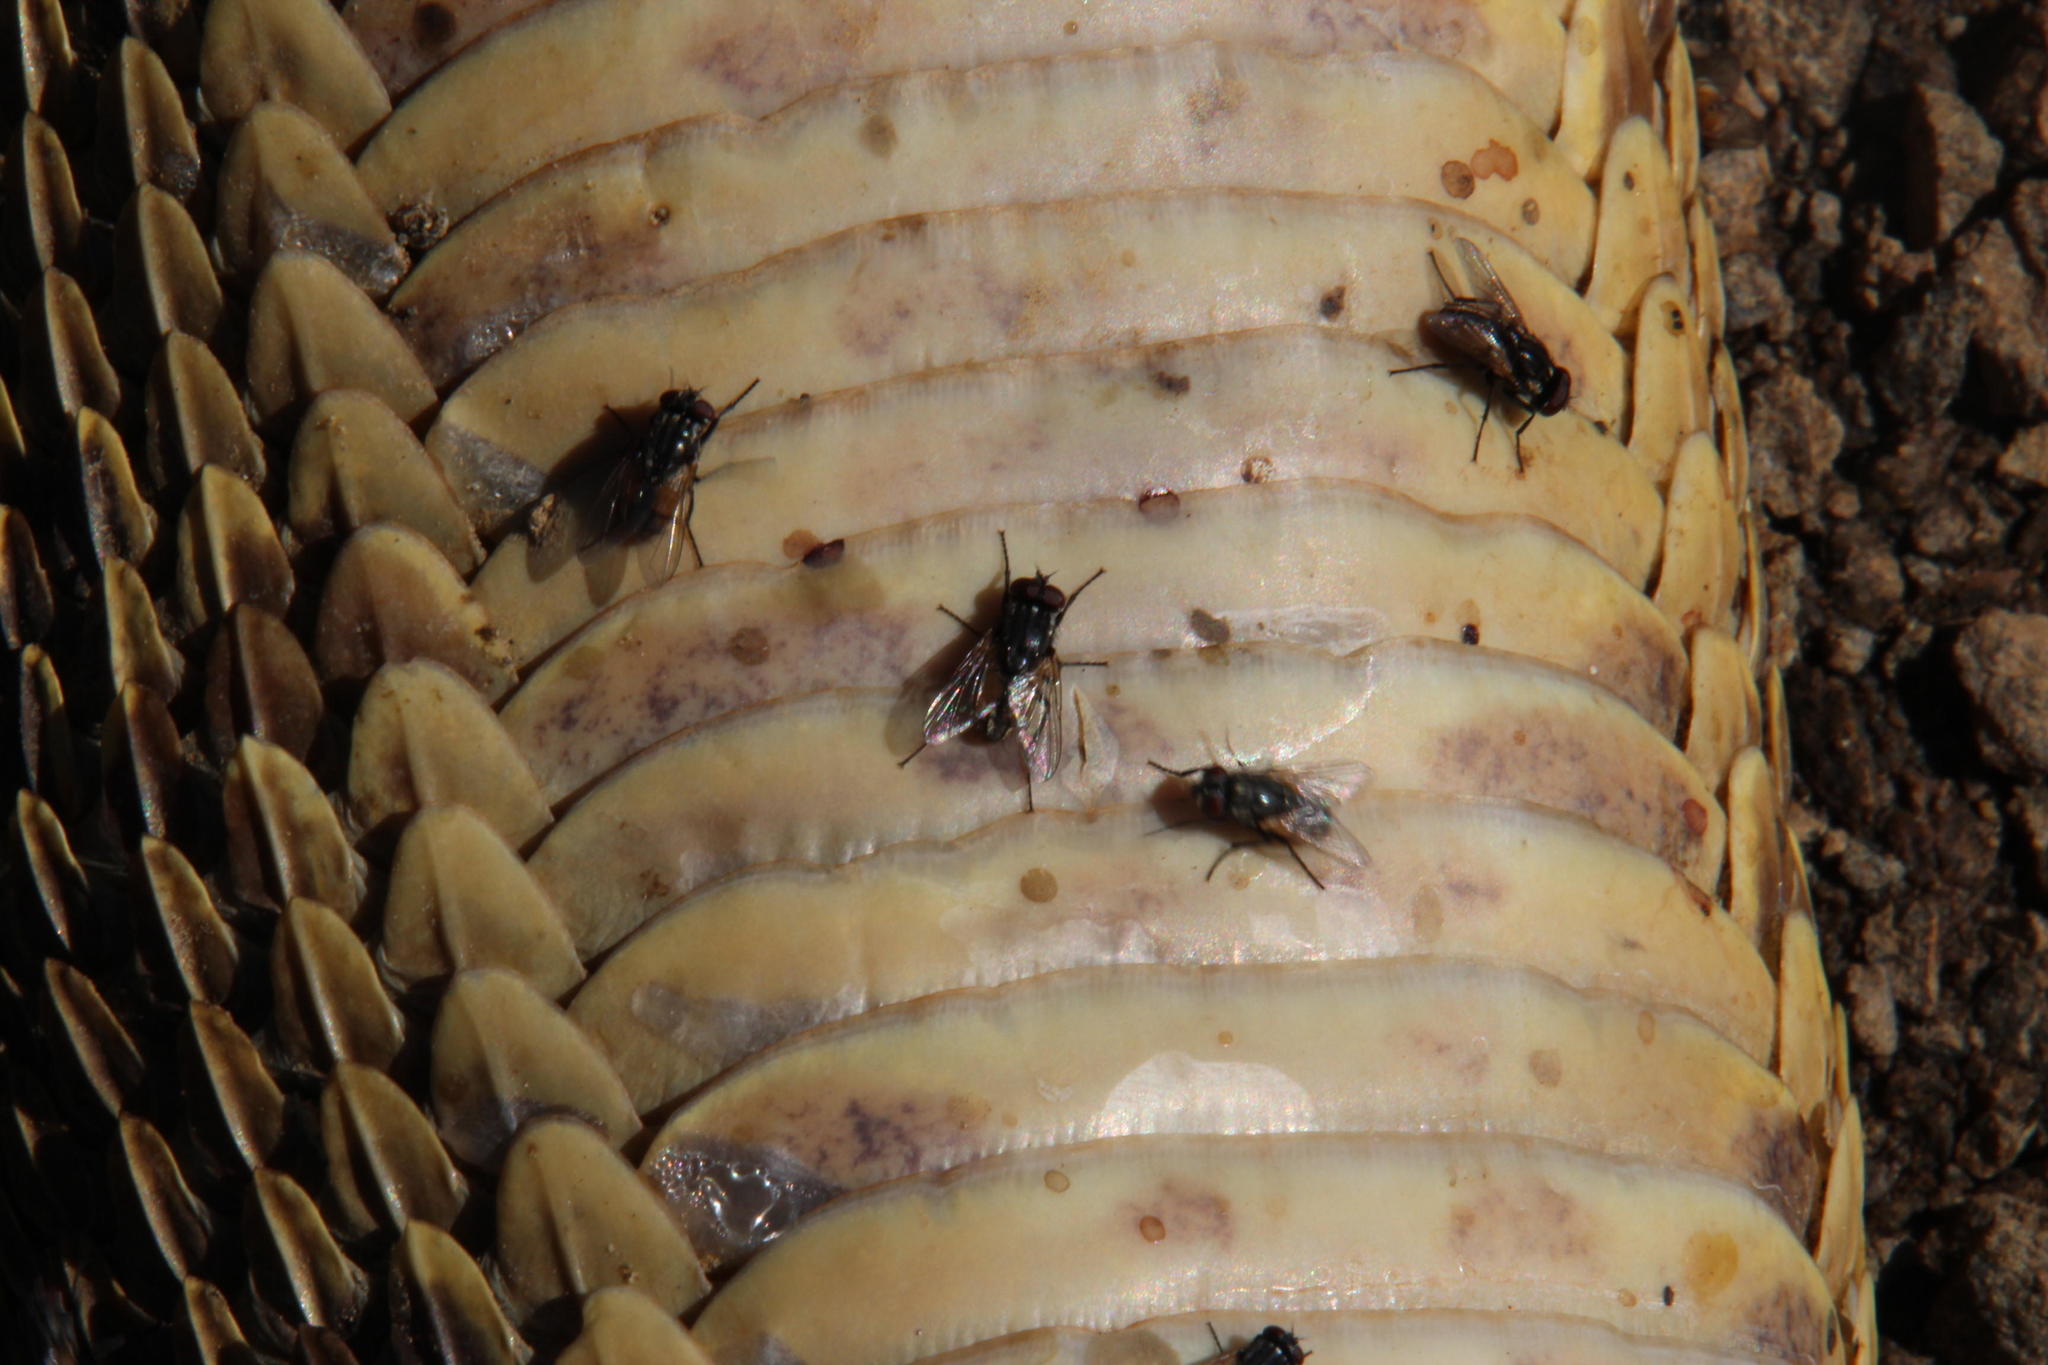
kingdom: Animalia
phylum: Chordata
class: Squamata
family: Viperidae
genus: Bitis
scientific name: Bitis arietans
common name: Puff adder
